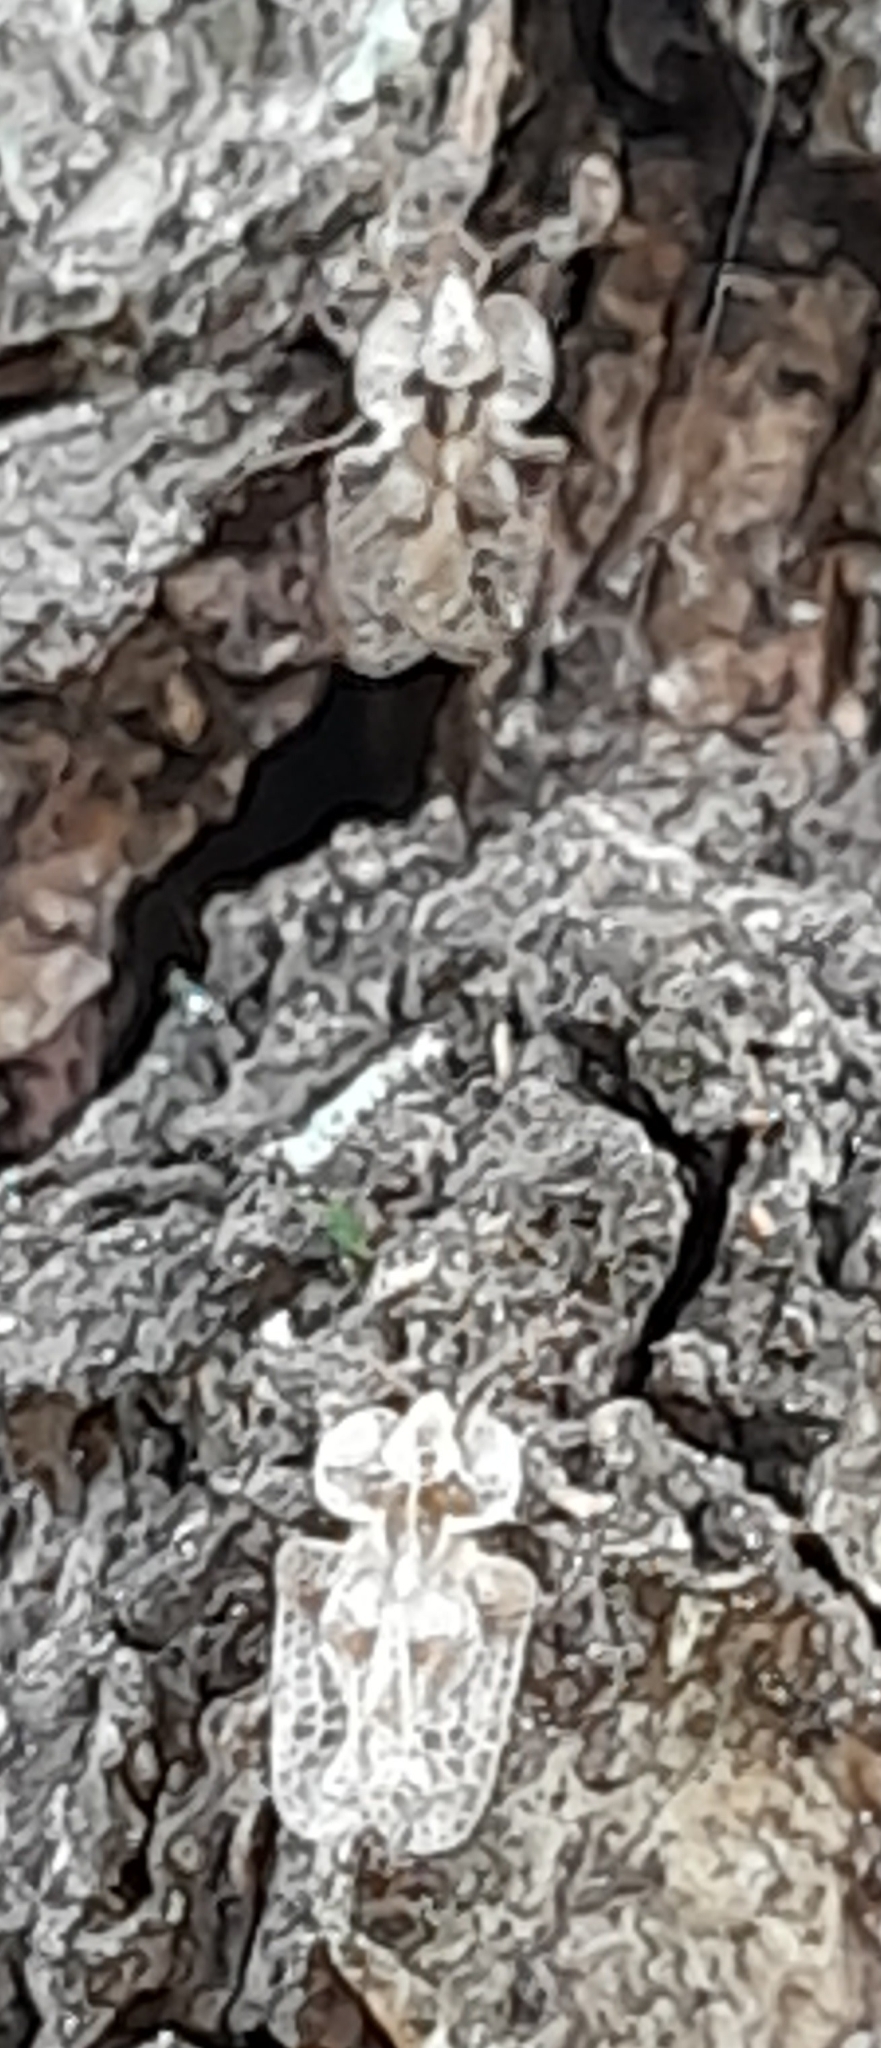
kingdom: Animalia
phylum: Arthropoda
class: Insecta
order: Hemiptera
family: Tingidae
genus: Corythucha
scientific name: Corythucha arcuata
